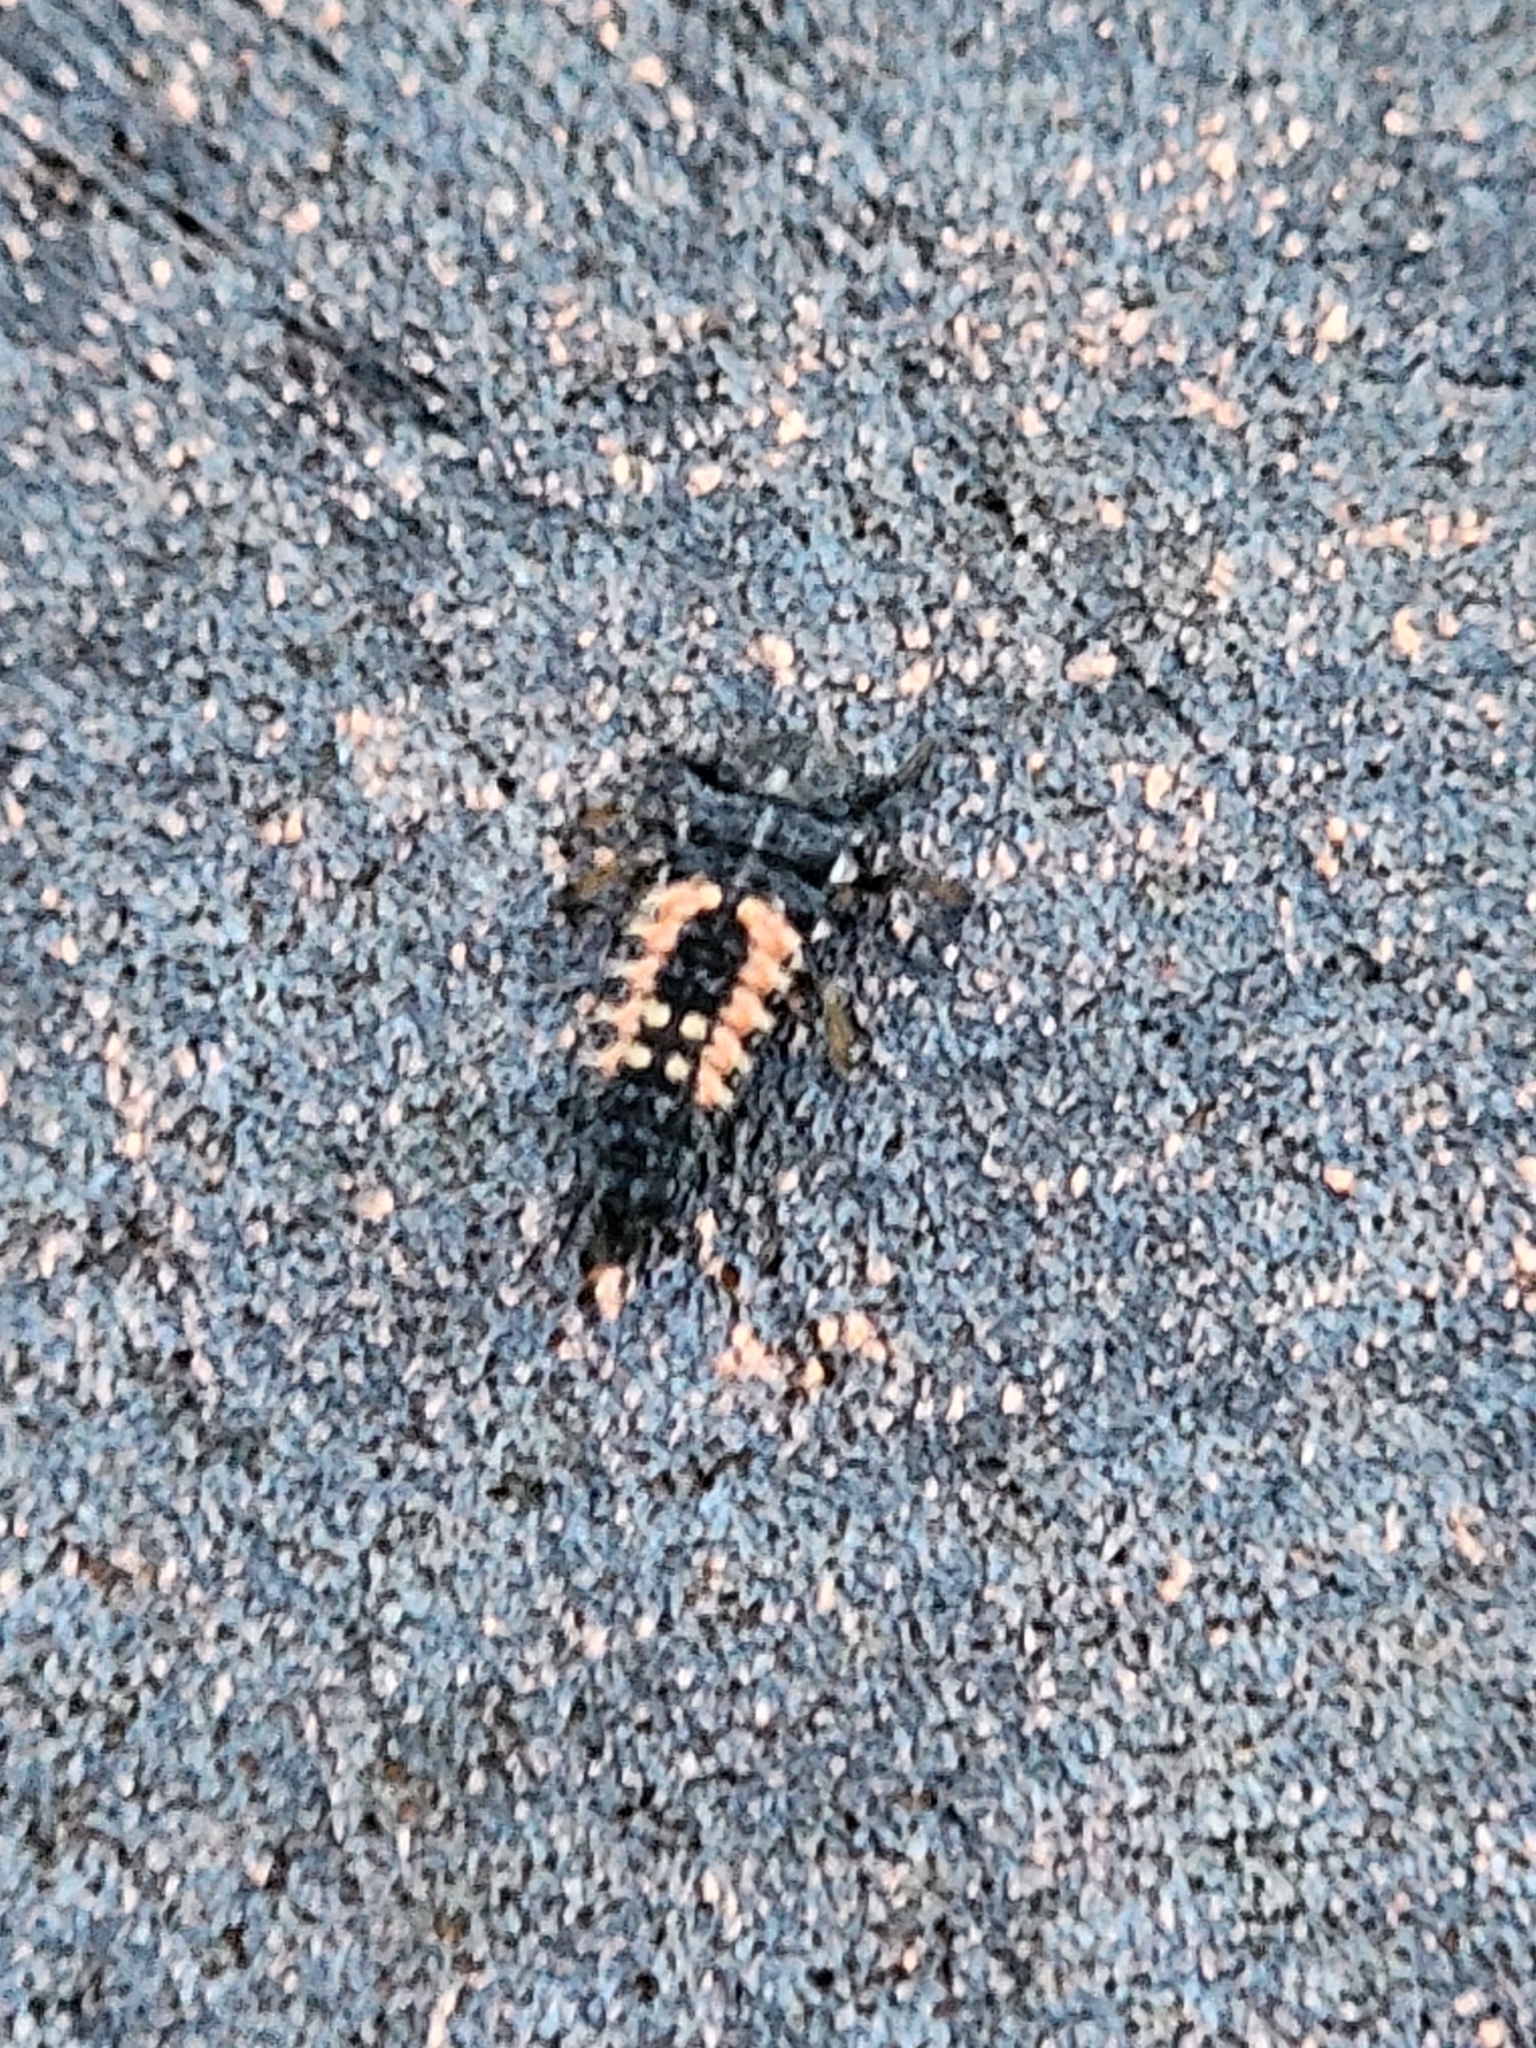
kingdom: Animalia
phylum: Arthropoda
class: Insecta
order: Coleoptera
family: Coccinellidae
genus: Harmonia
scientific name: Harmonia axyridis
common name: Harlequin ladybird
